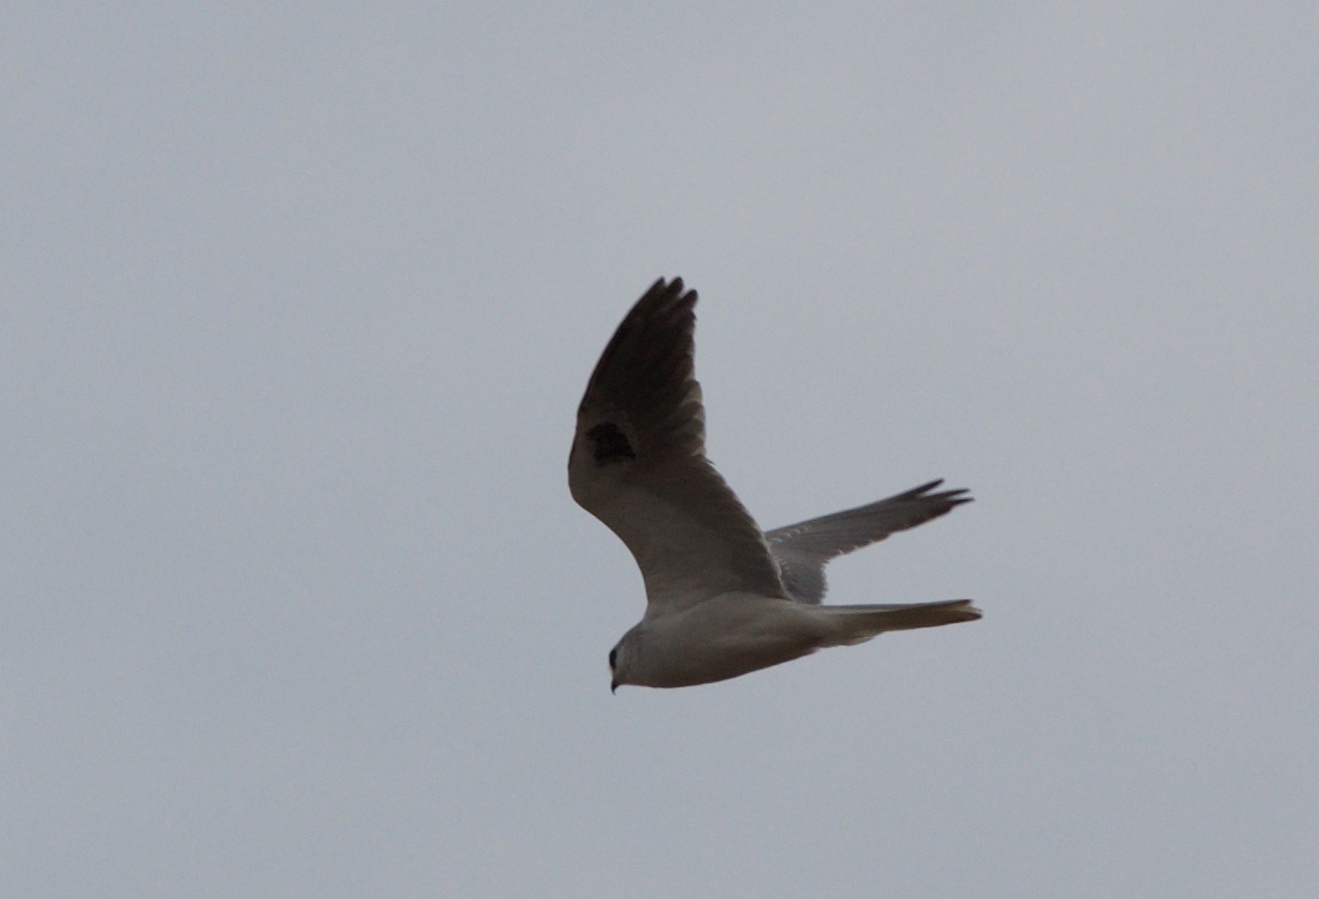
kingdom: Animalia
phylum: Chordata
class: Aves
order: Accipitriformes
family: Accipitridae
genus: Elanus
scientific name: Elanus leucurus
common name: White-tailed kite
